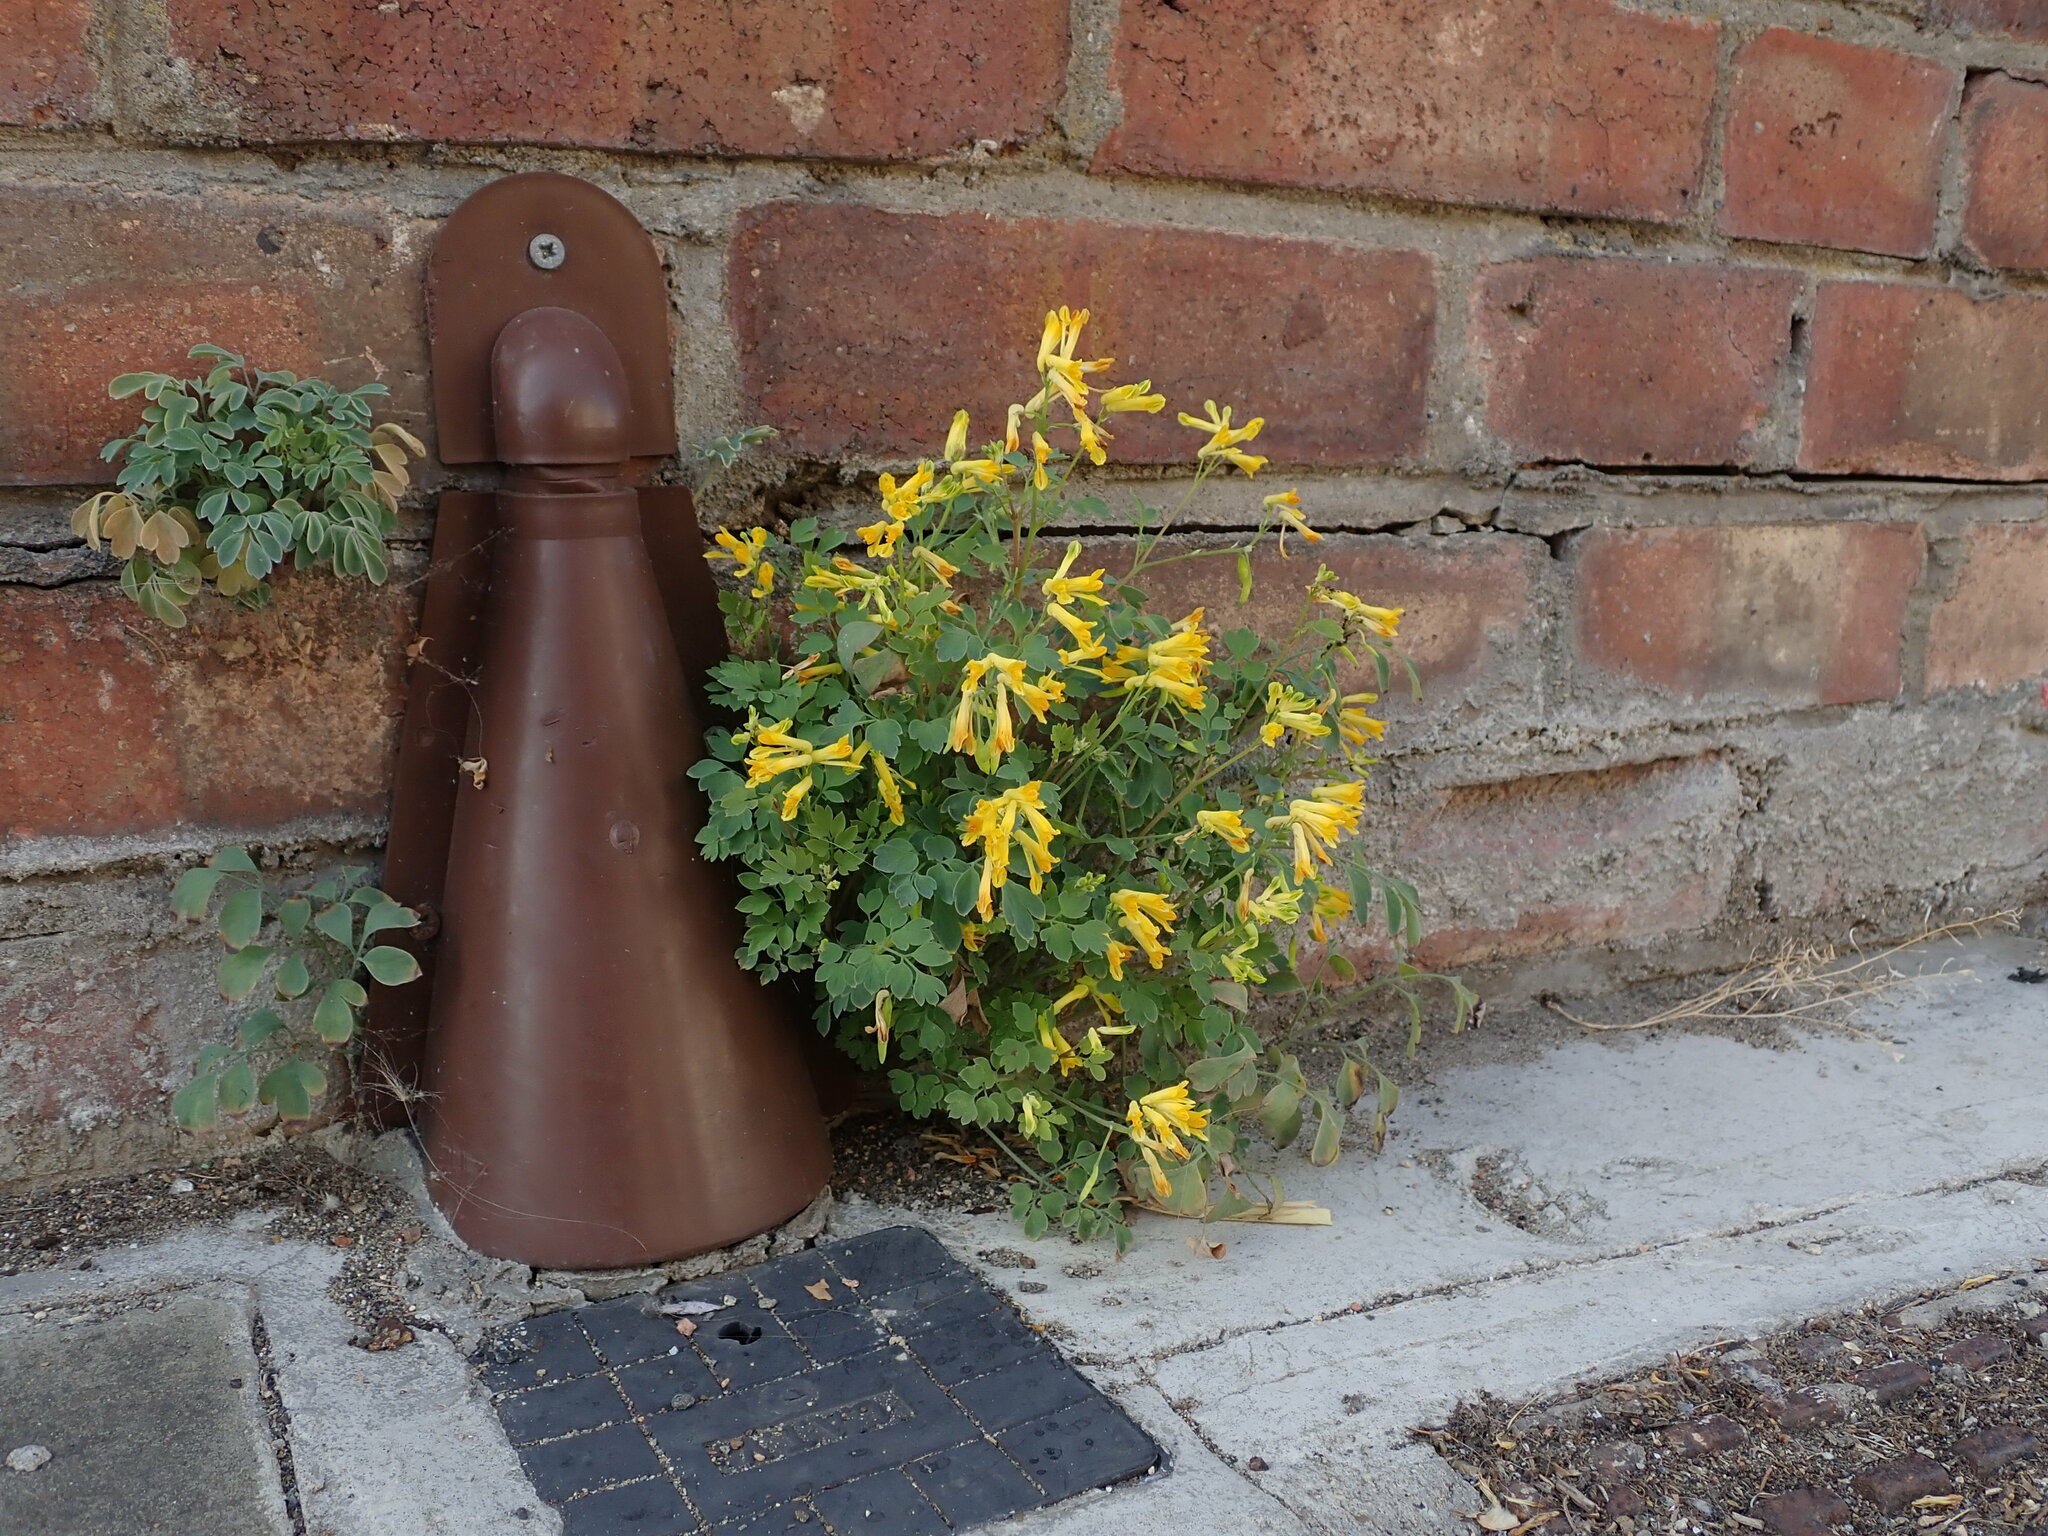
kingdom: Plantae
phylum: Tracheophyta
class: Magnoliopsida
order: Ranunculales
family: Papaveraceae
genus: Pseudofumaria
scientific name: Pseudofumaria lutea
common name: Yellow corydalis
